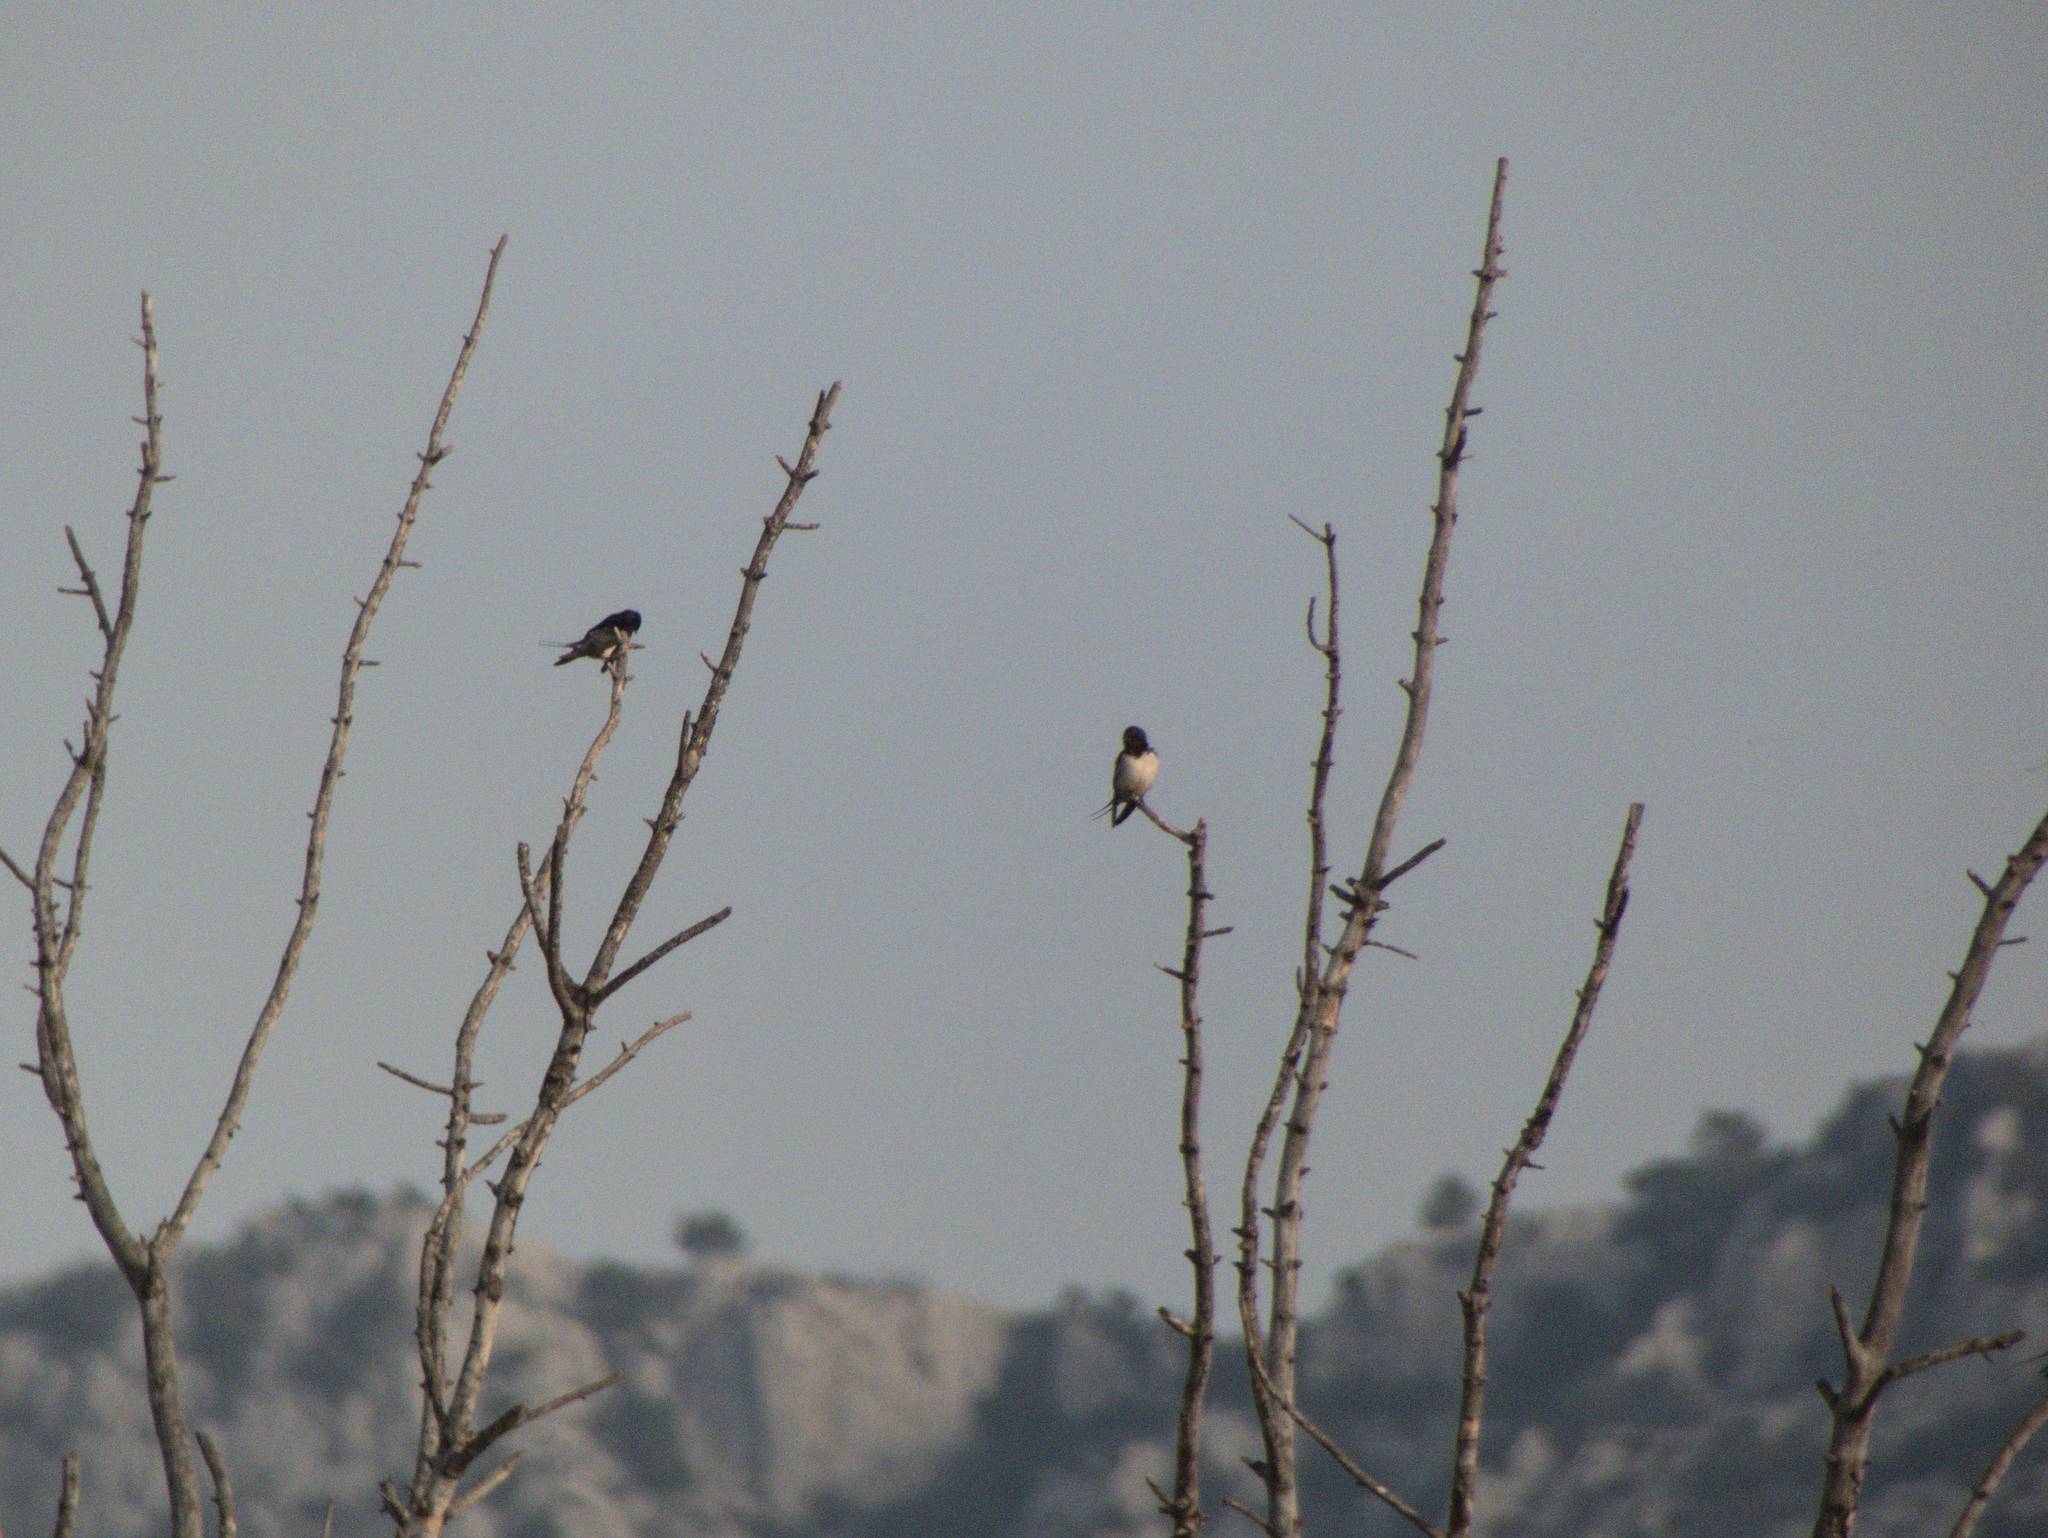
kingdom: Animalia
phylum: Chordata
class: Aves
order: Passeriformes
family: Hirundinidae
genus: Hirundo
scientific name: Hirundo rustica
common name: Barn swallow
